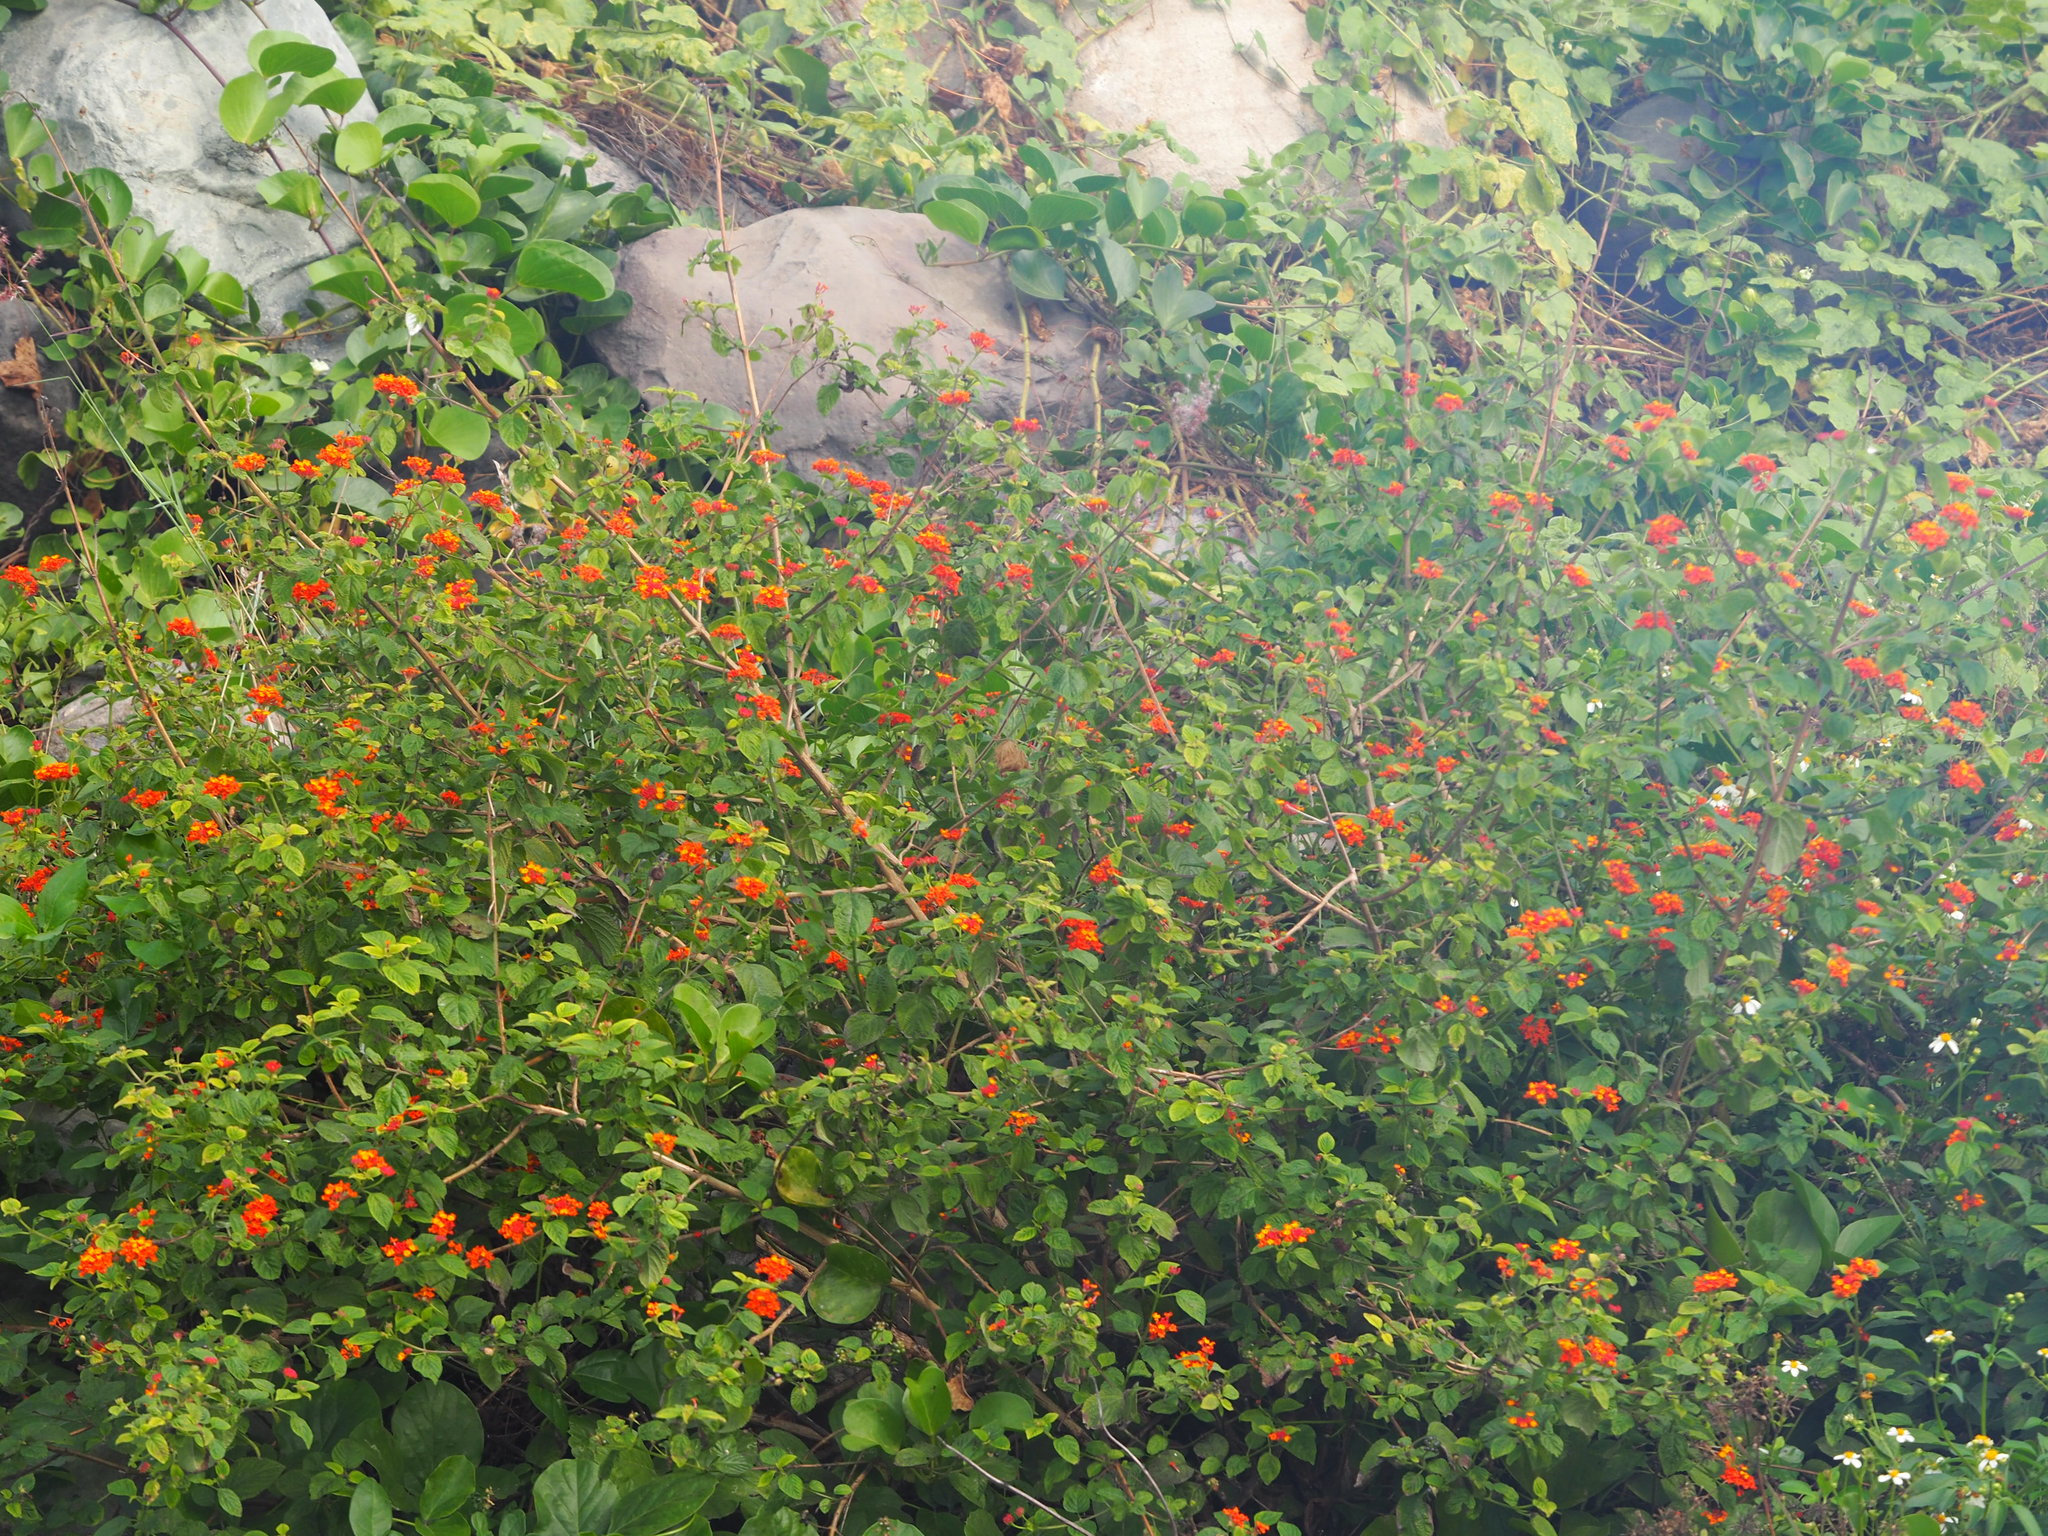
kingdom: Plantae
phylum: Tracheophyta
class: Magnoliopsida
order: Lamiales
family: Verbenaceae
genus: Lantana
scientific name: Lantana camara
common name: Lantana
